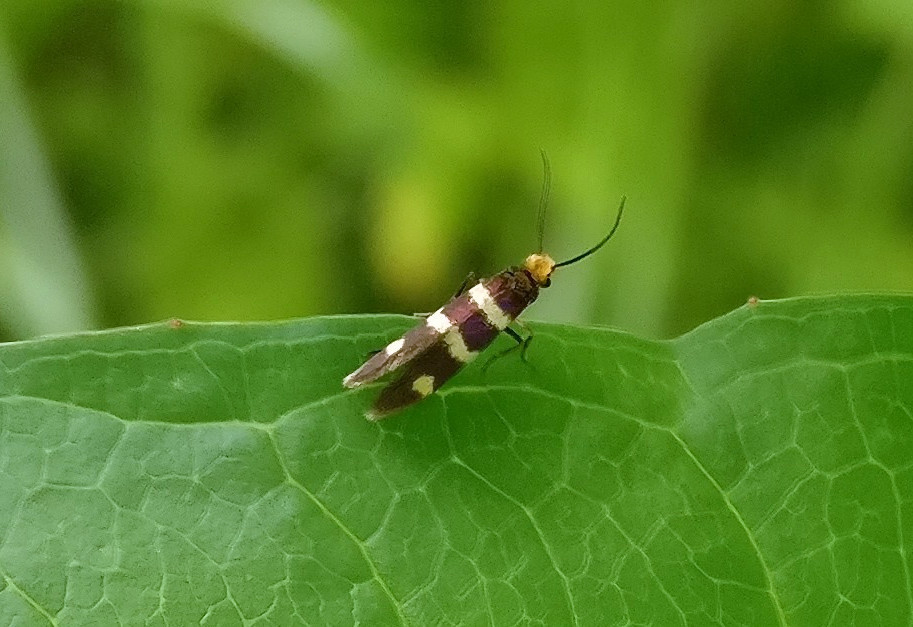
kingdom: Animalia
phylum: Arthropoda
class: Insecta
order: Lepidoptera
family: Micropterigidae
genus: Micropterix
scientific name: Micropterix aureatella
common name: Yellow-barred gold
